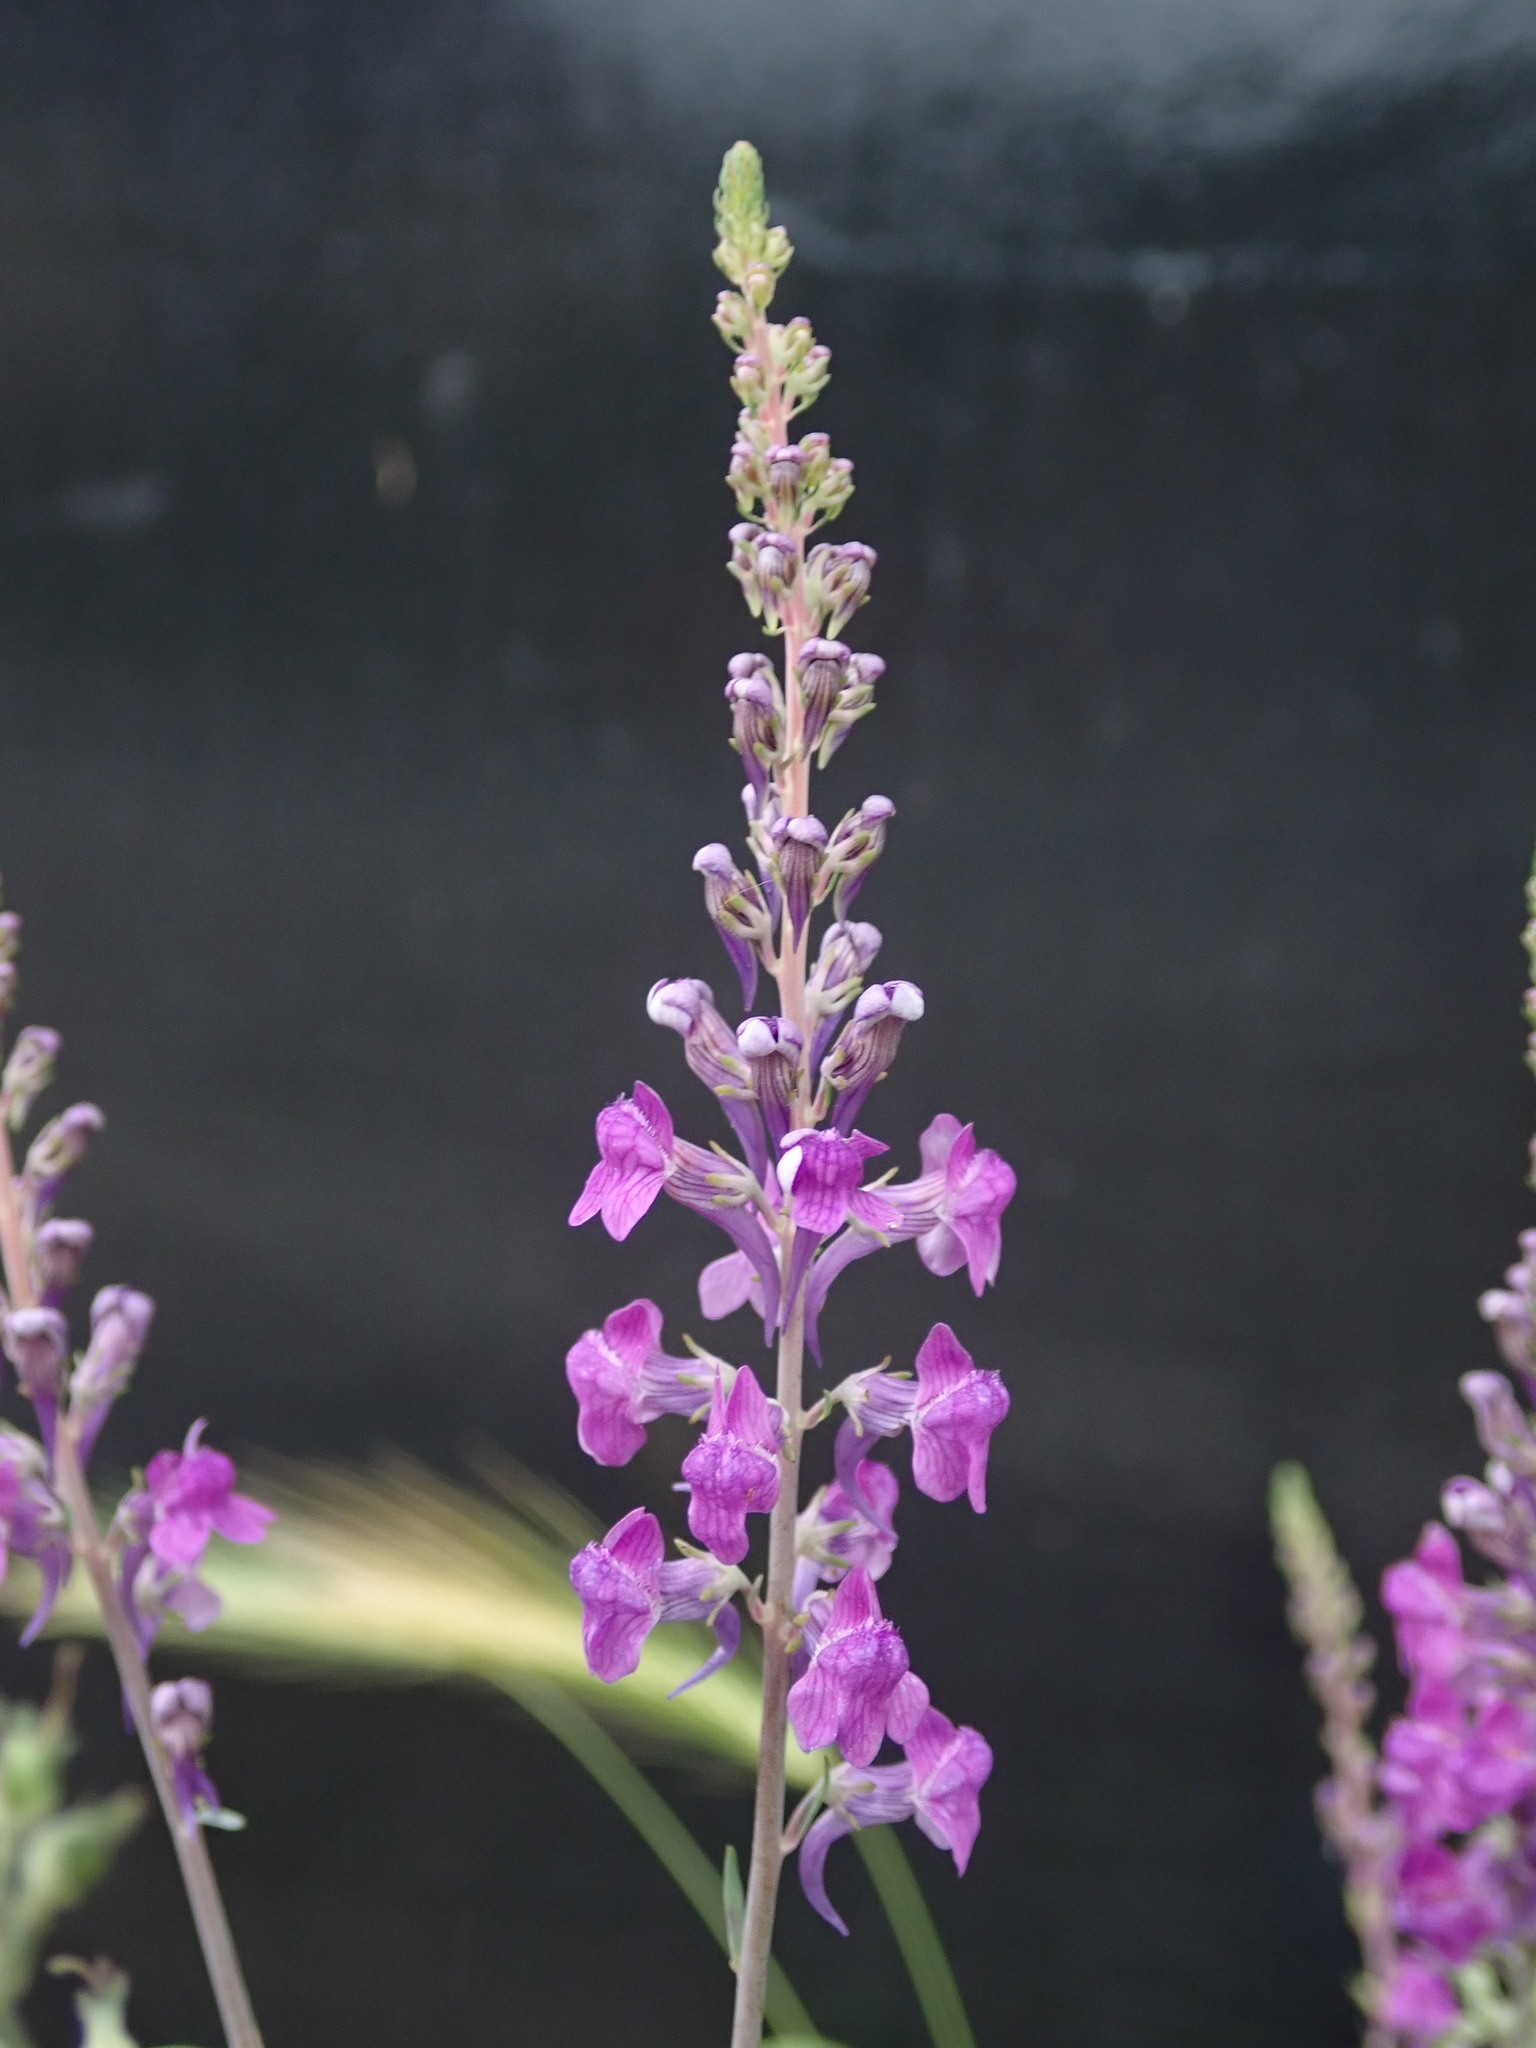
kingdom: Plantae
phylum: Tracheophyta
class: Magnoliopsida
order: Lamiales
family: Plantaginaceae
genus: Linaria
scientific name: Linaria purpurea
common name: Purple toadflax
